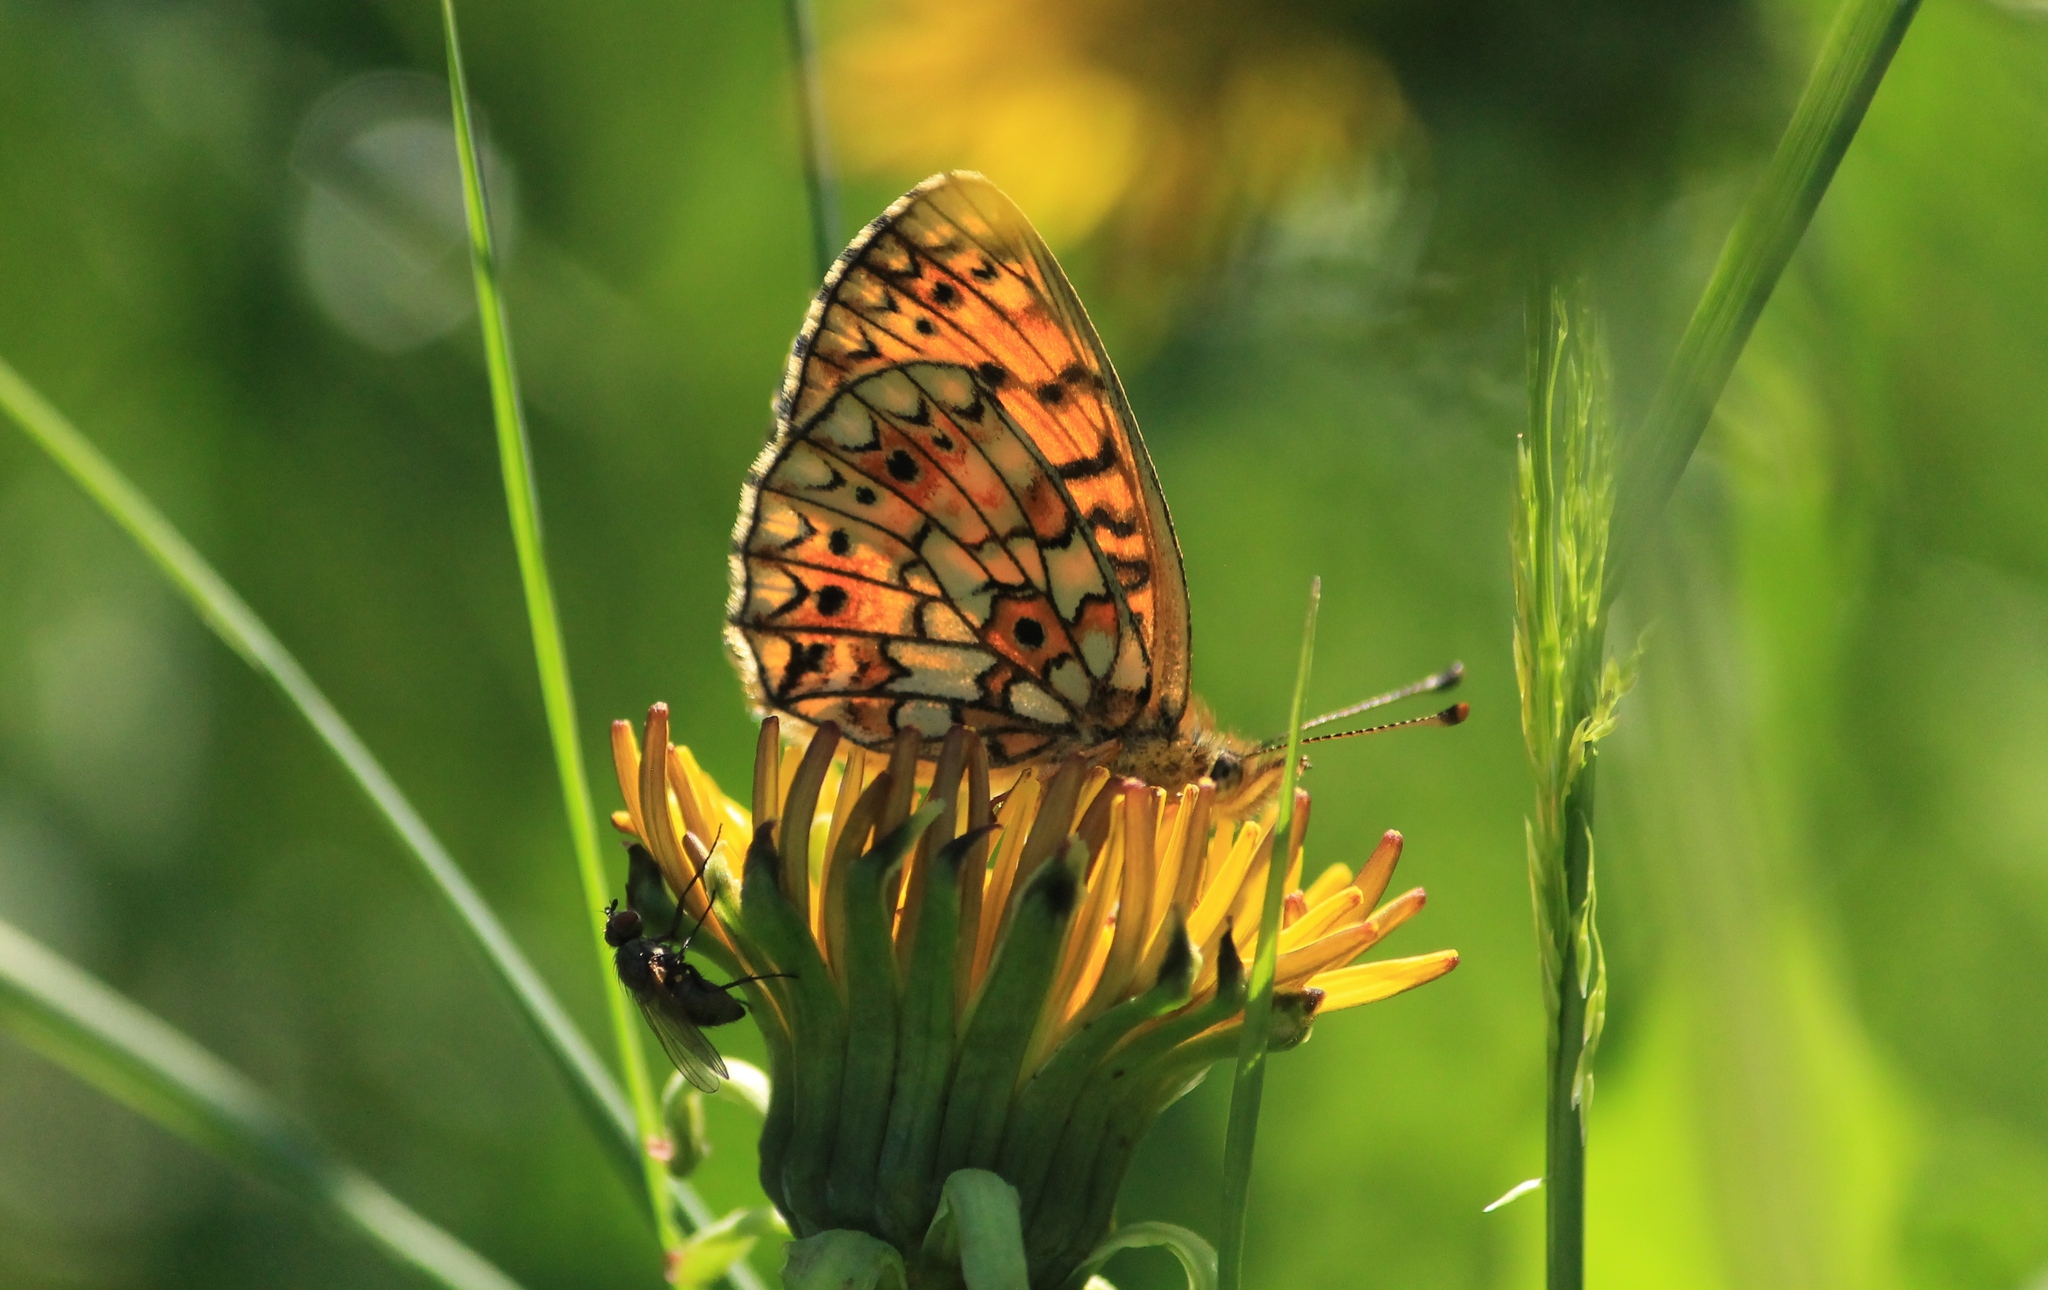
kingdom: Animalia
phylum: Arthropoda
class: Insecta
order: Lepidoptera
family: Nymphalidae
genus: Boloria
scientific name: Boloria selene
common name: Small pearl-bordered fritillary
